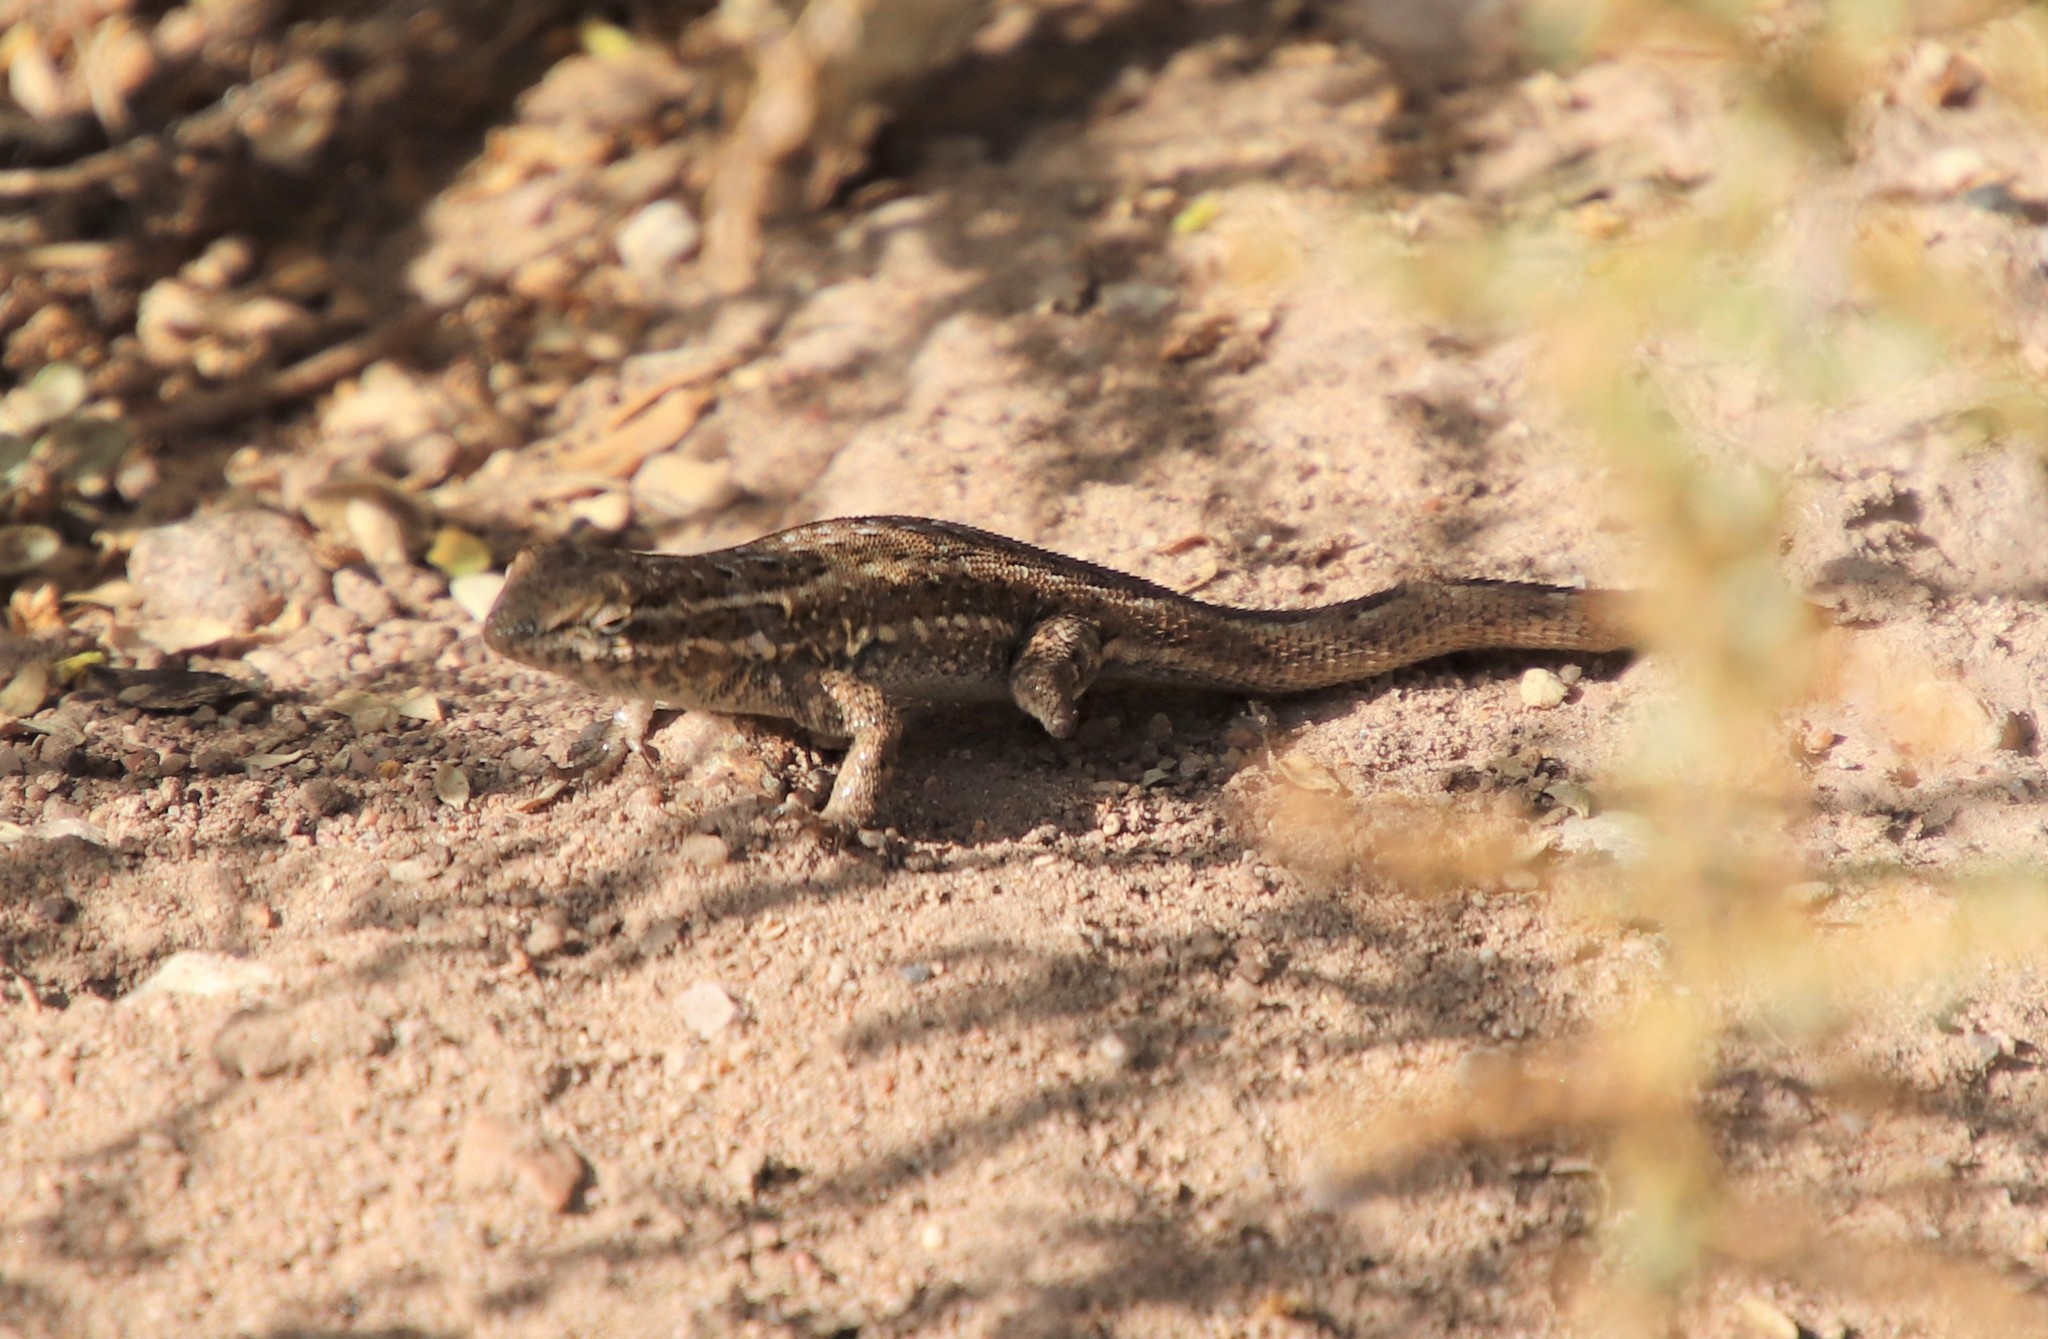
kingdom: Animalia
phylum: Chordata
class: Squamata
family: Phrynosomatidae
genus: Uta
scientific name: Uta stansburiana
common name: Side-blotched lizard
